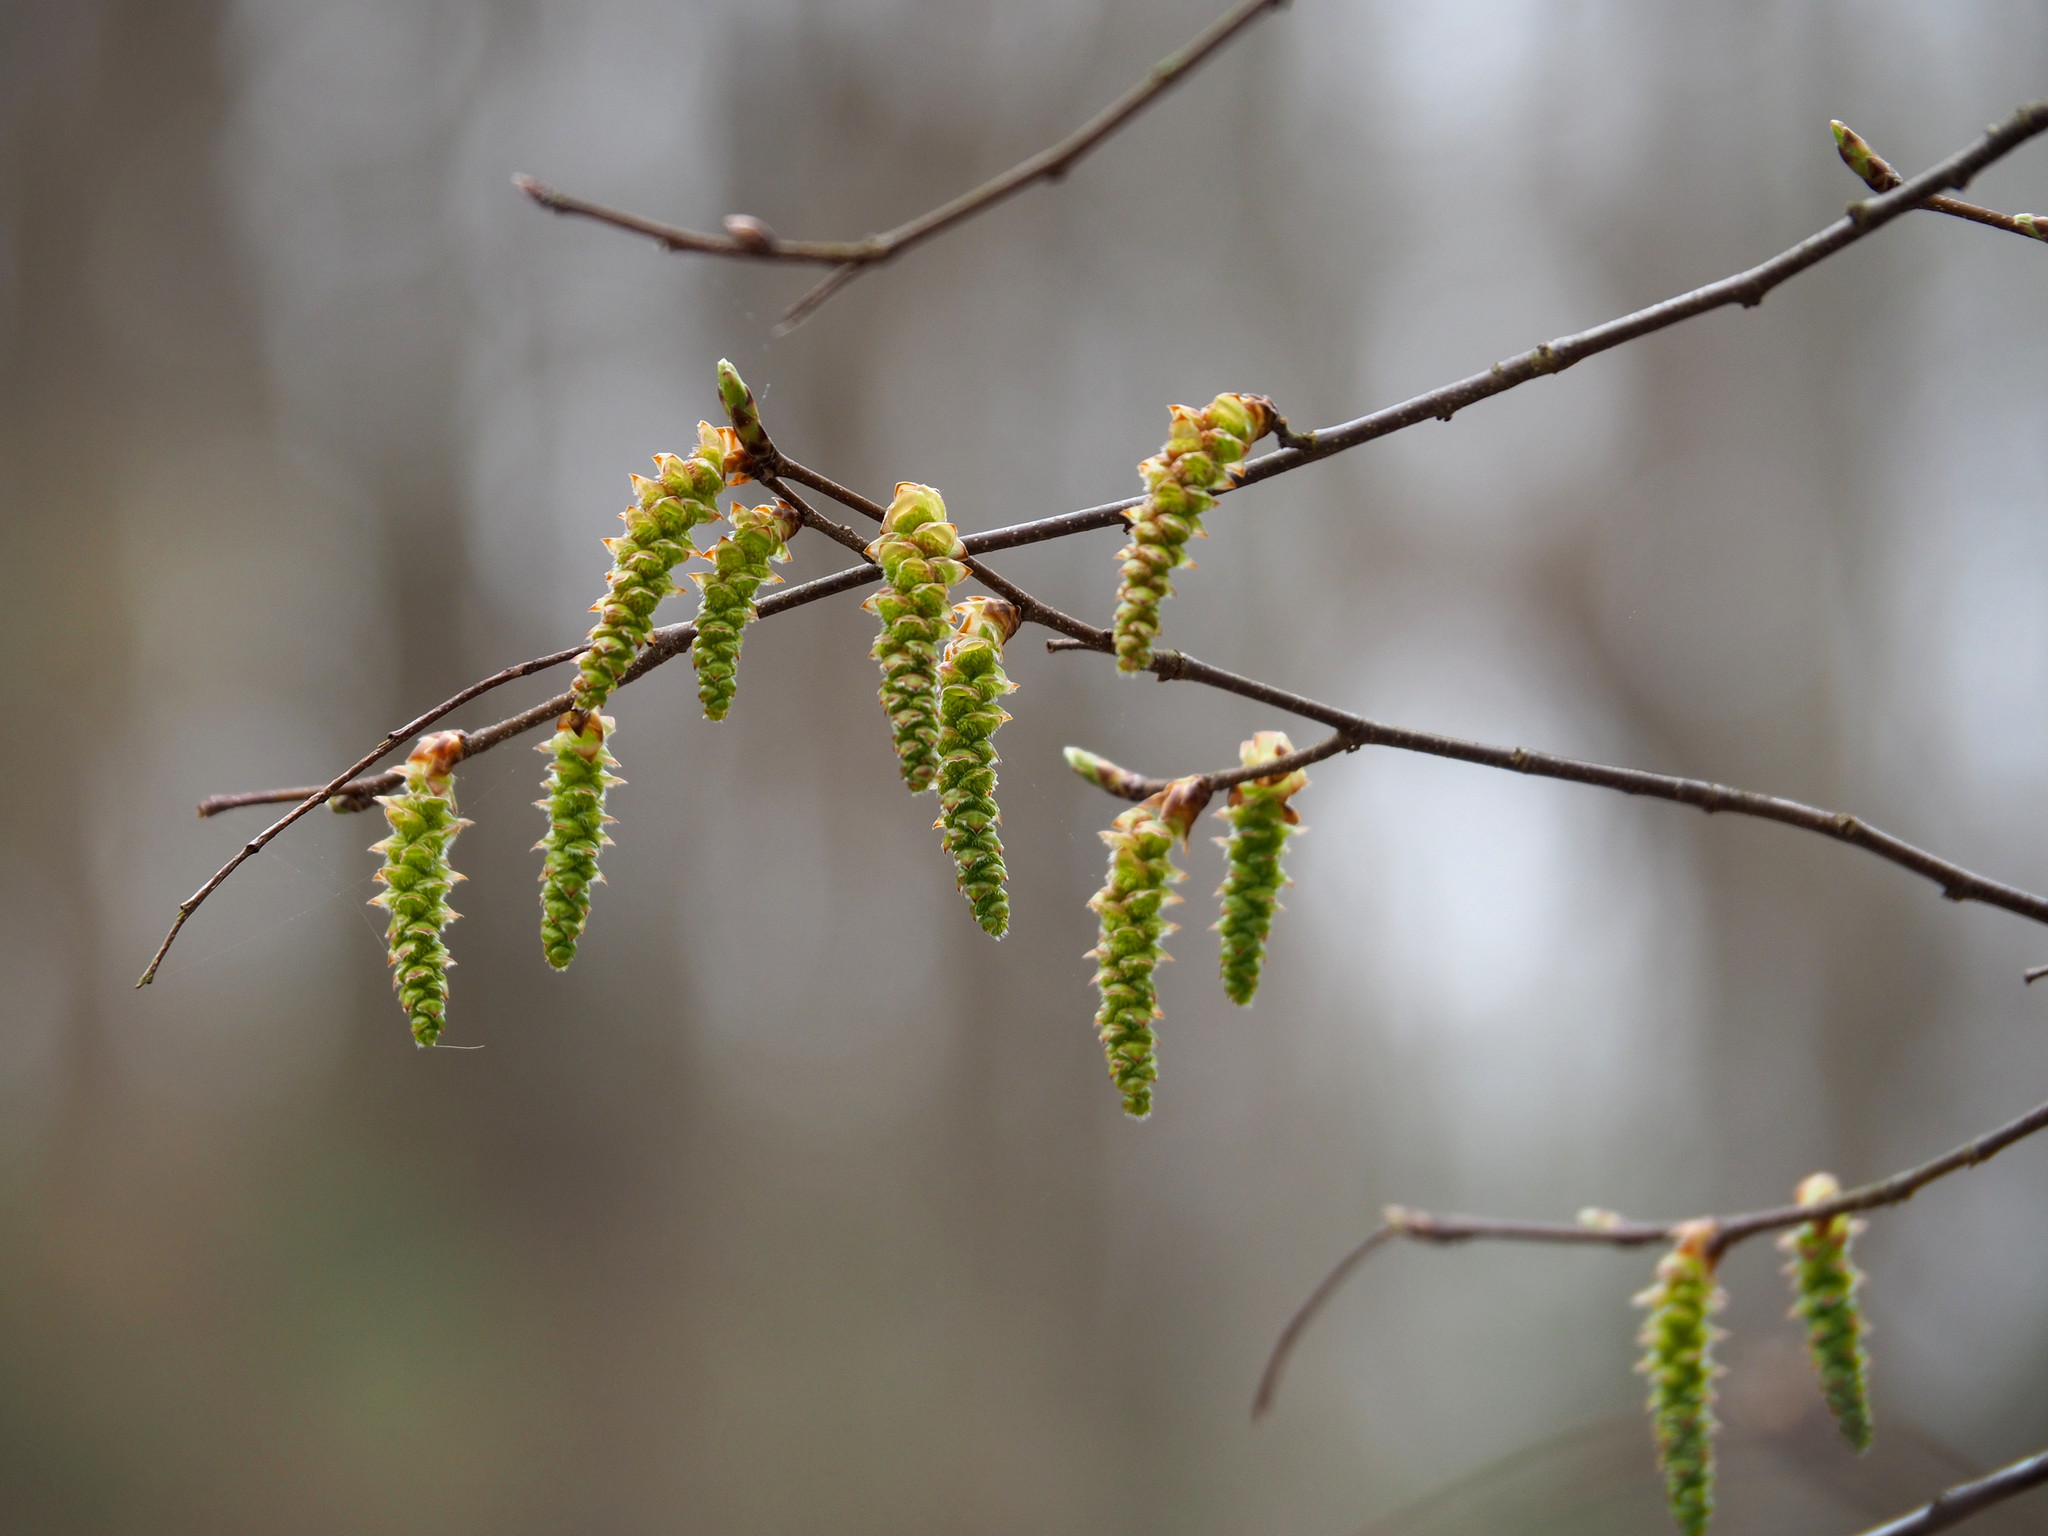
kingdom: Plantae
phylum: Tracheophyta
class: Magnoliopsida
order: Fagales
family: Betulaceae
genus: Carpinus
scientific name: Carpinus caroliniana
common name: American hornbeam
